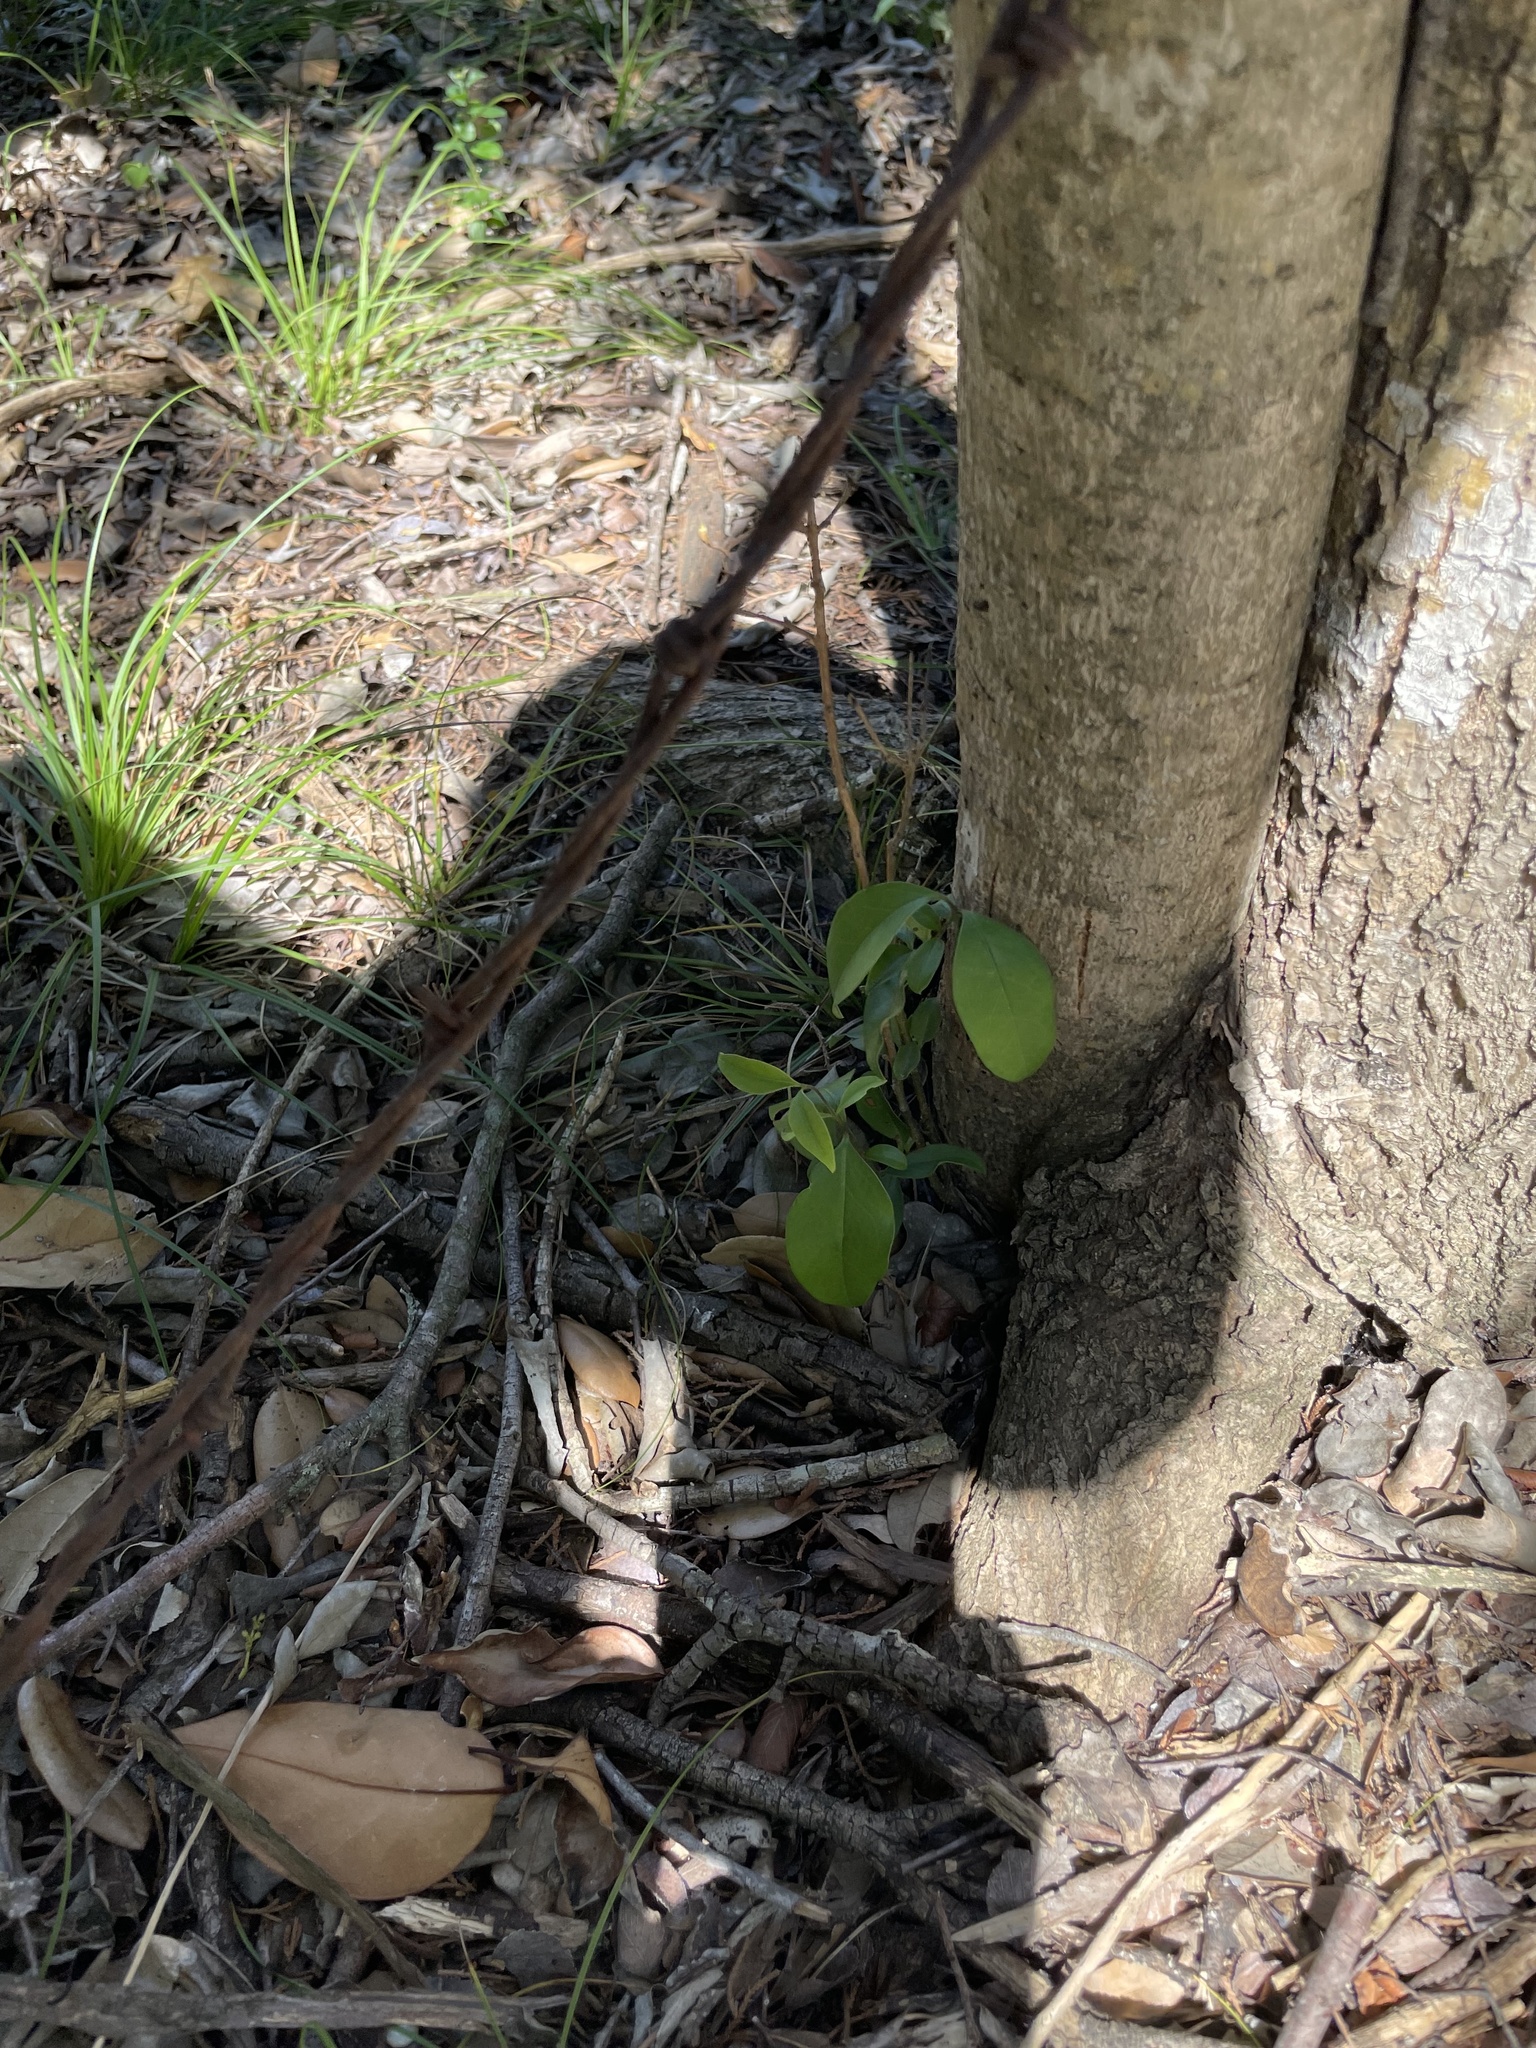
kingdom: Plantae
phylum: Tracheophyta
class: Magnoliopsida
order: Lamiales
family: Oleaceae
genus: Ligustrum
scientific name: Ligustrum lucidum
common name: Glossy privet
